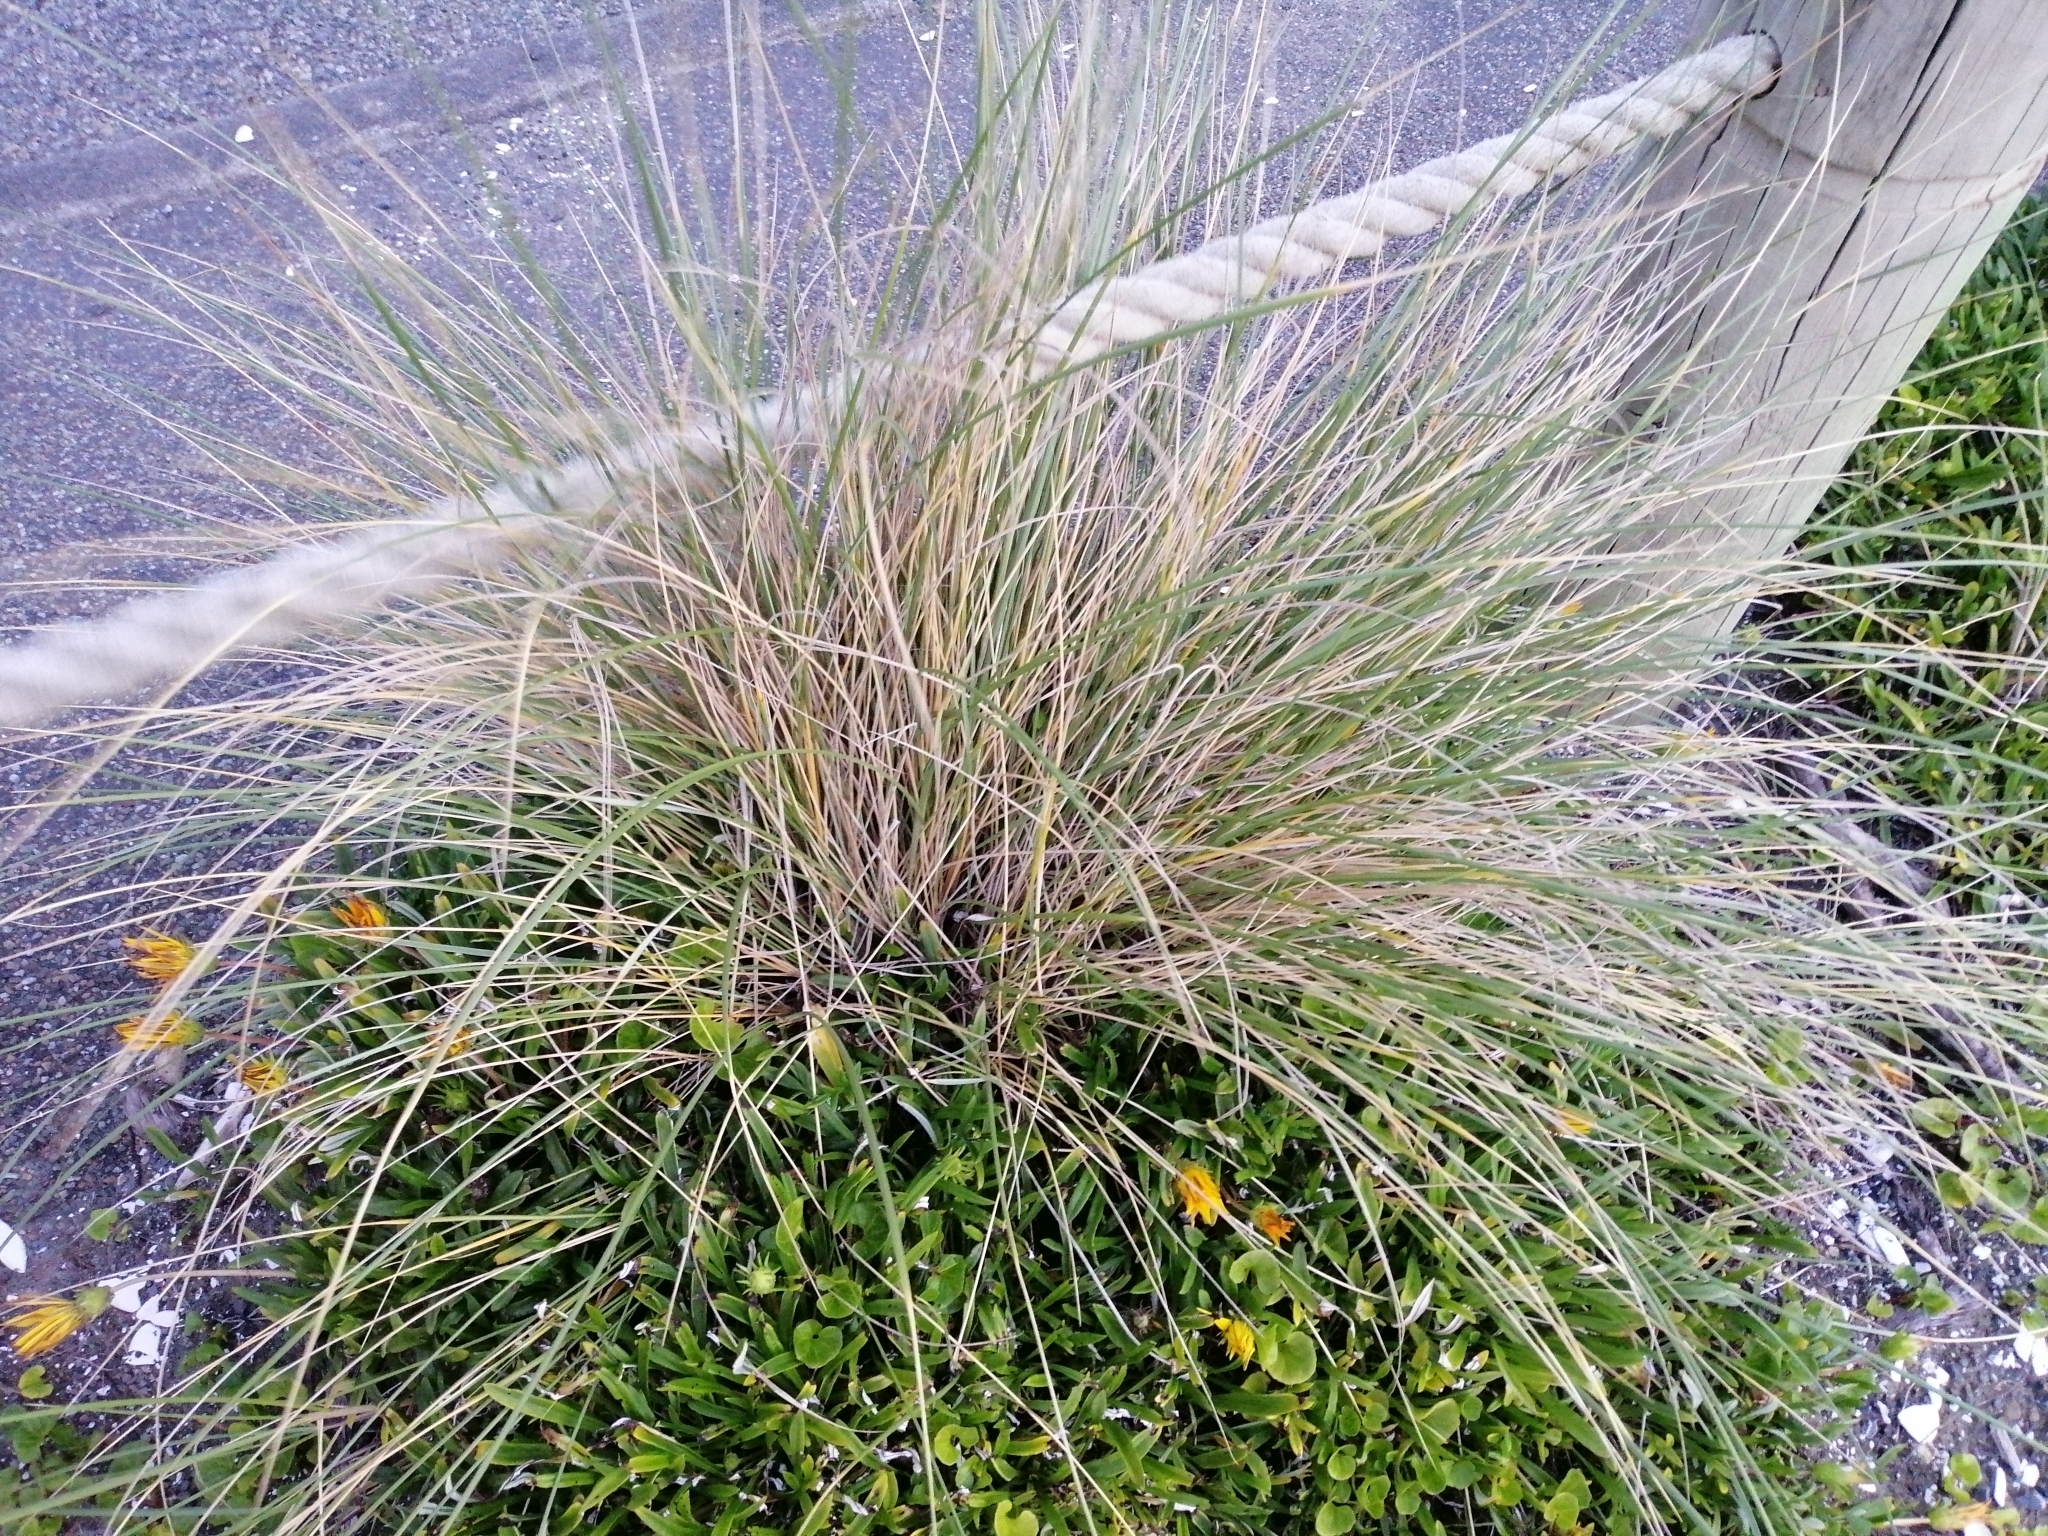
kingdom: Plantae
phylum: Tracheophyta
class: Liliopsida
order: Poales
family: Poaceae
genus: Poa
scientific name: Poa cita
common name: Silver tussock
